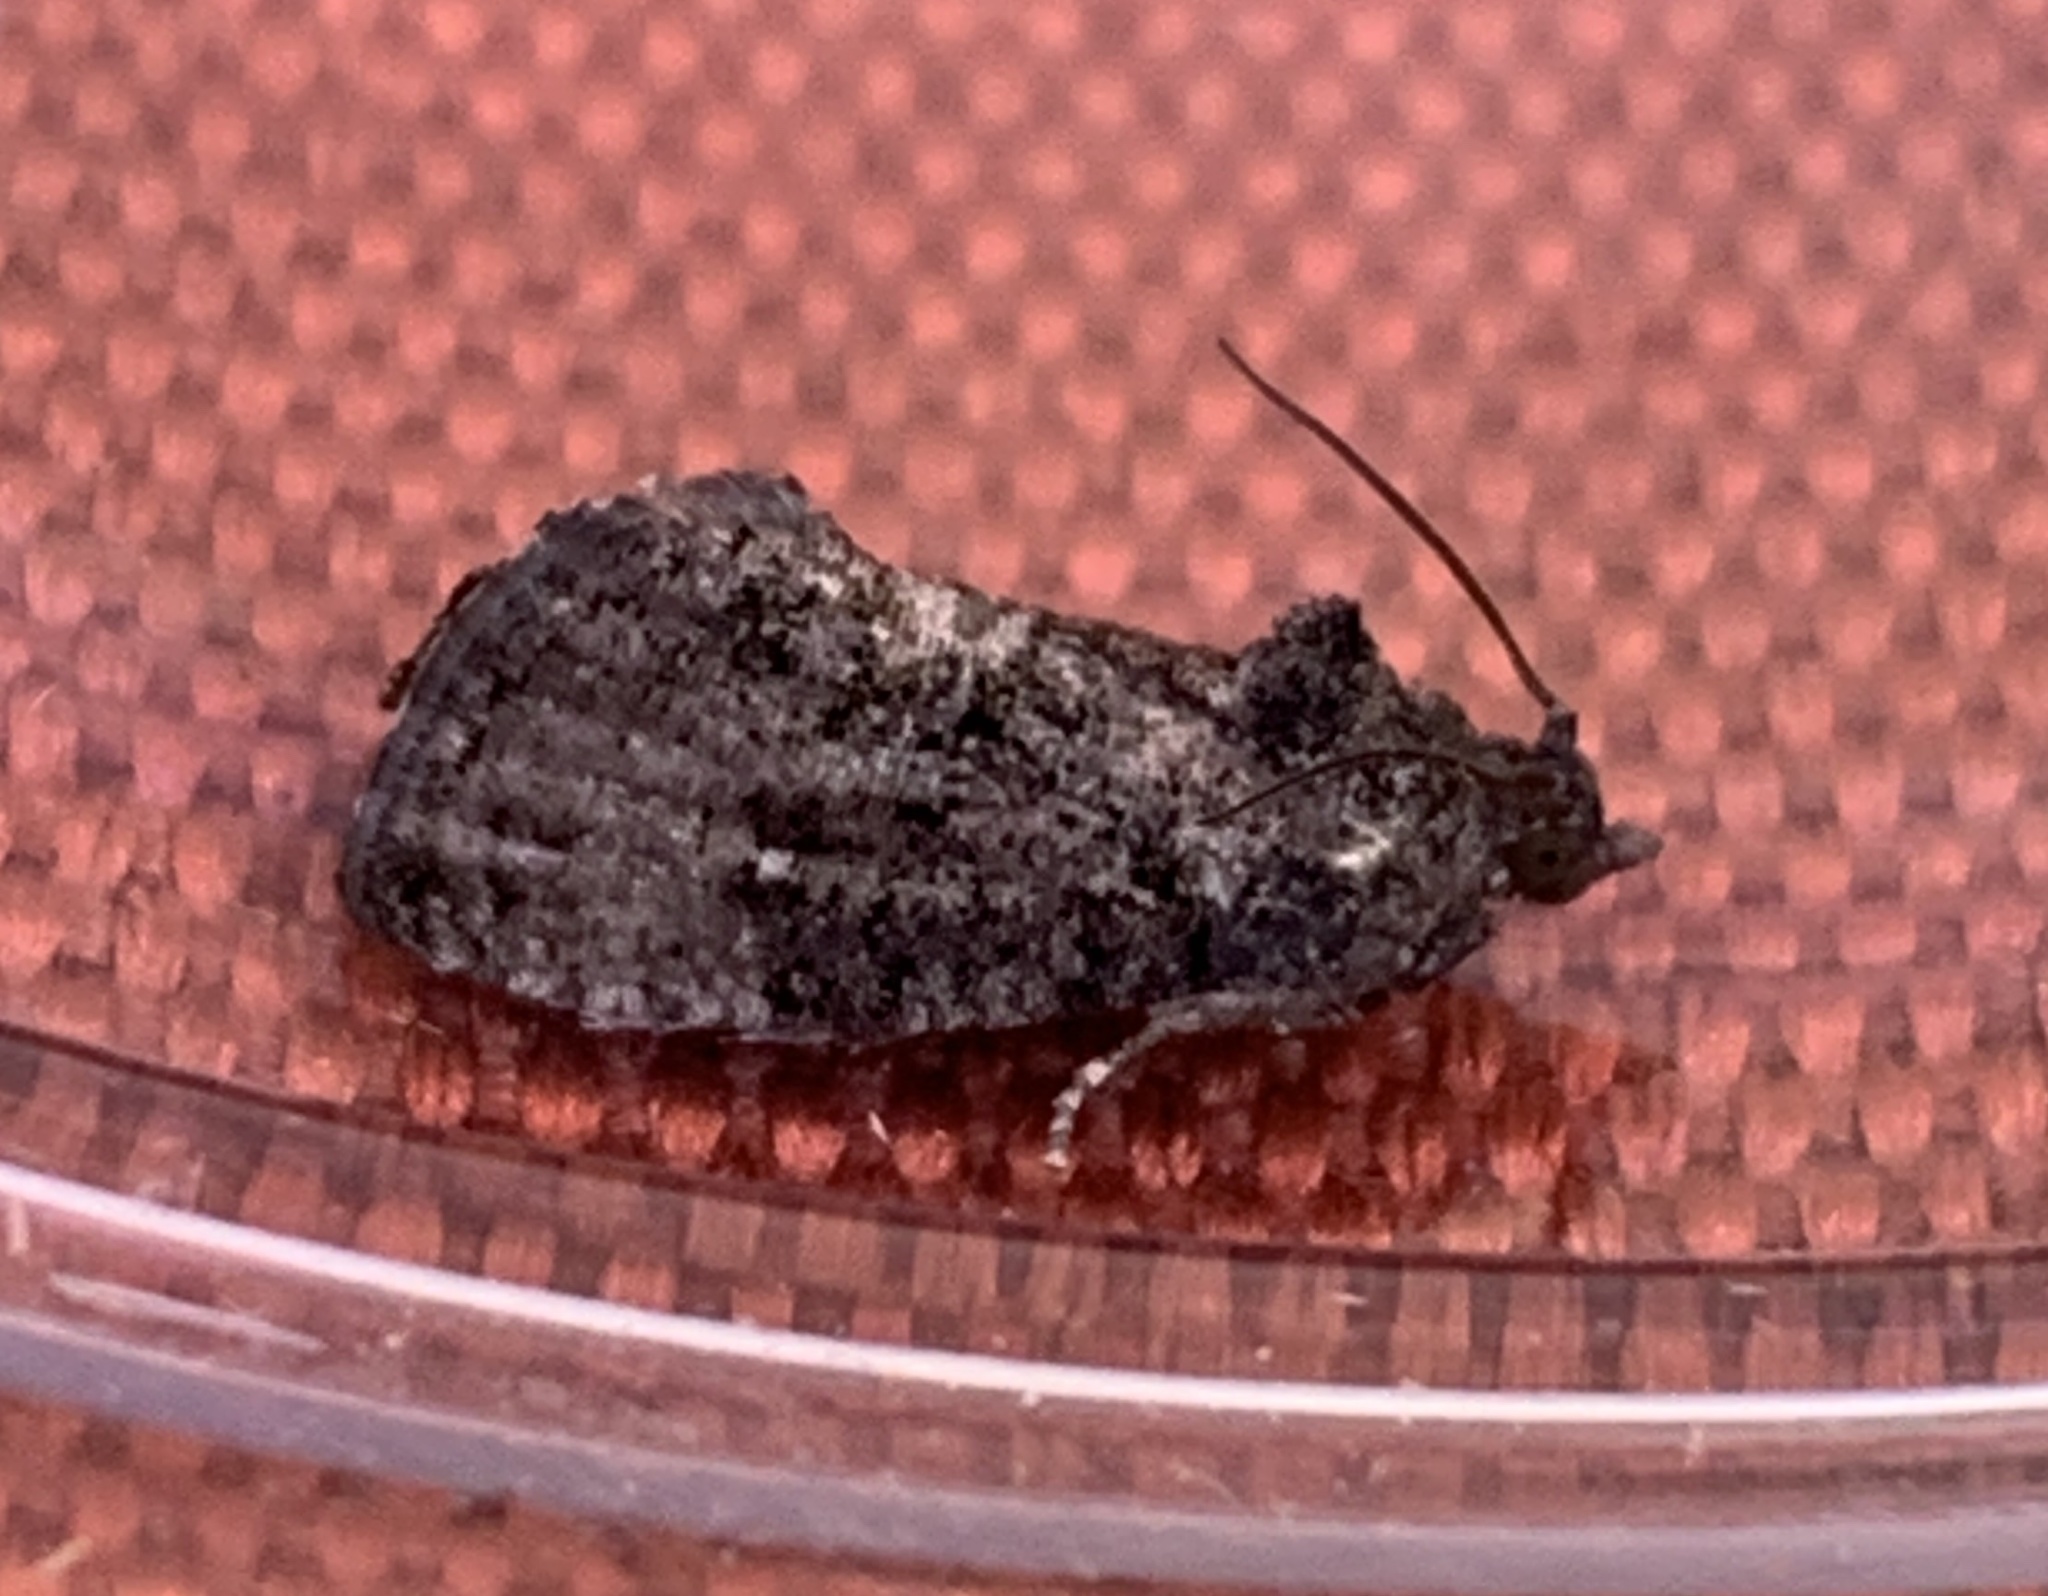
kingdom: Animalia
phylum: Arthropoda
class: Insecta
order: Lepidoptera
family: Tortricidae
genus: Gymnandrosoma
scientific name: Gymnandrosoma punctidiscanum
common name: Dotted ecdytolopha moth
